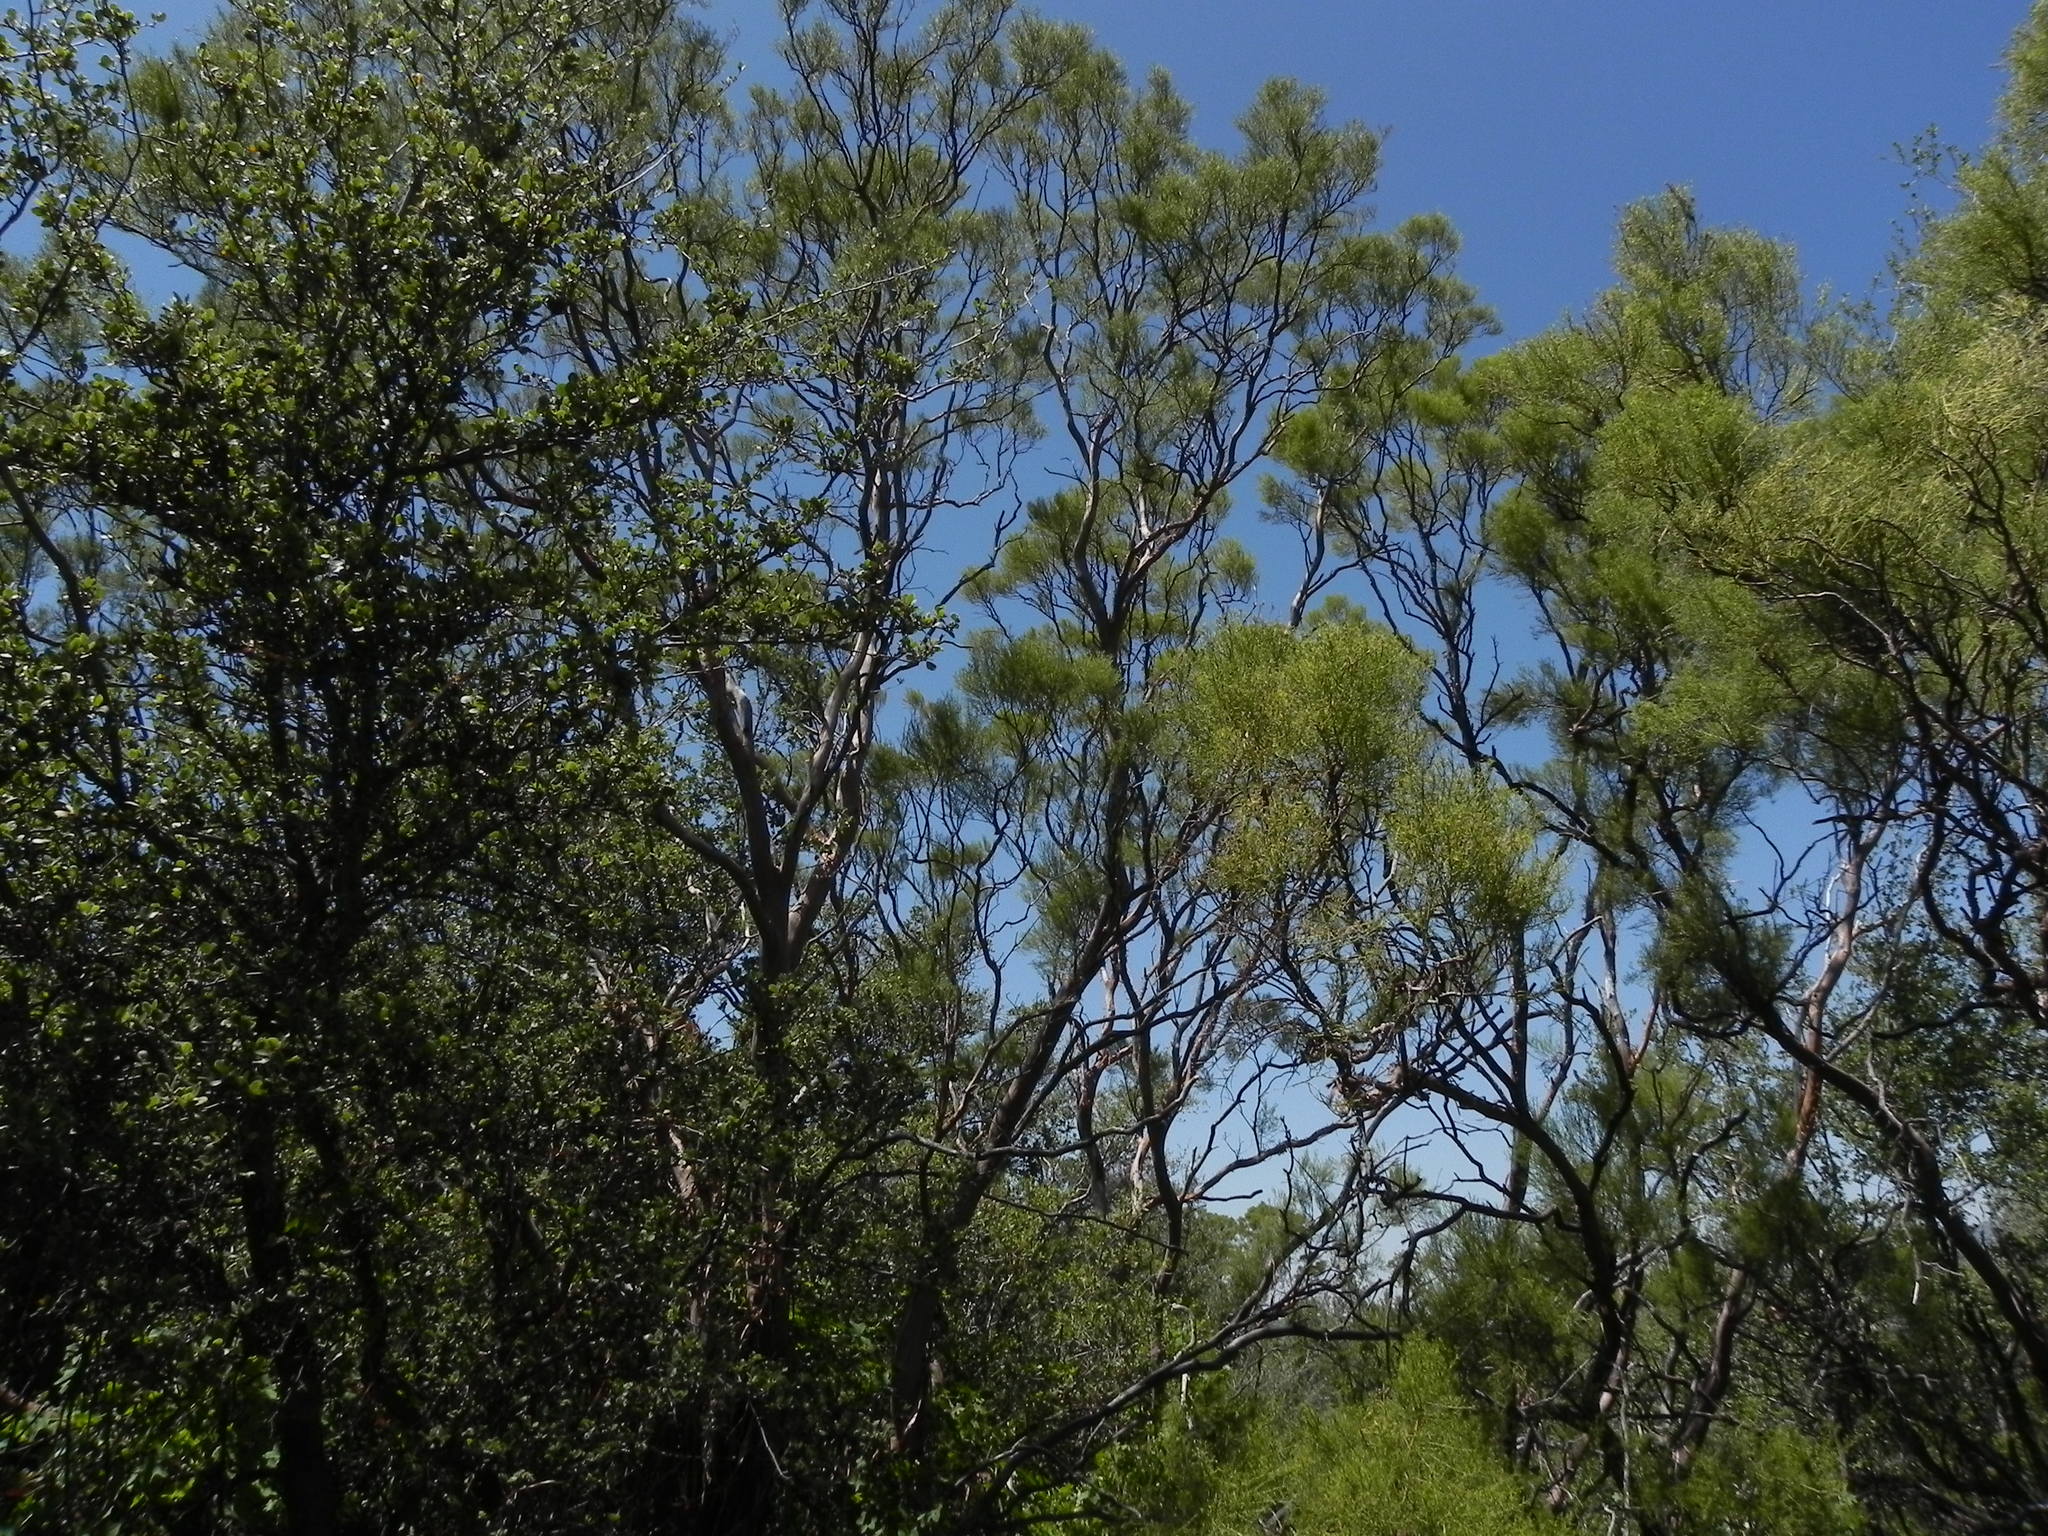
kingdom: Plantae
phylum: Tracheophyta
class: Magnoliopsida
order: Rosales
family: Rosaceae
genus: Adenostoma
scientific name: Adenostoma sparsifolium
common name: Red shank
